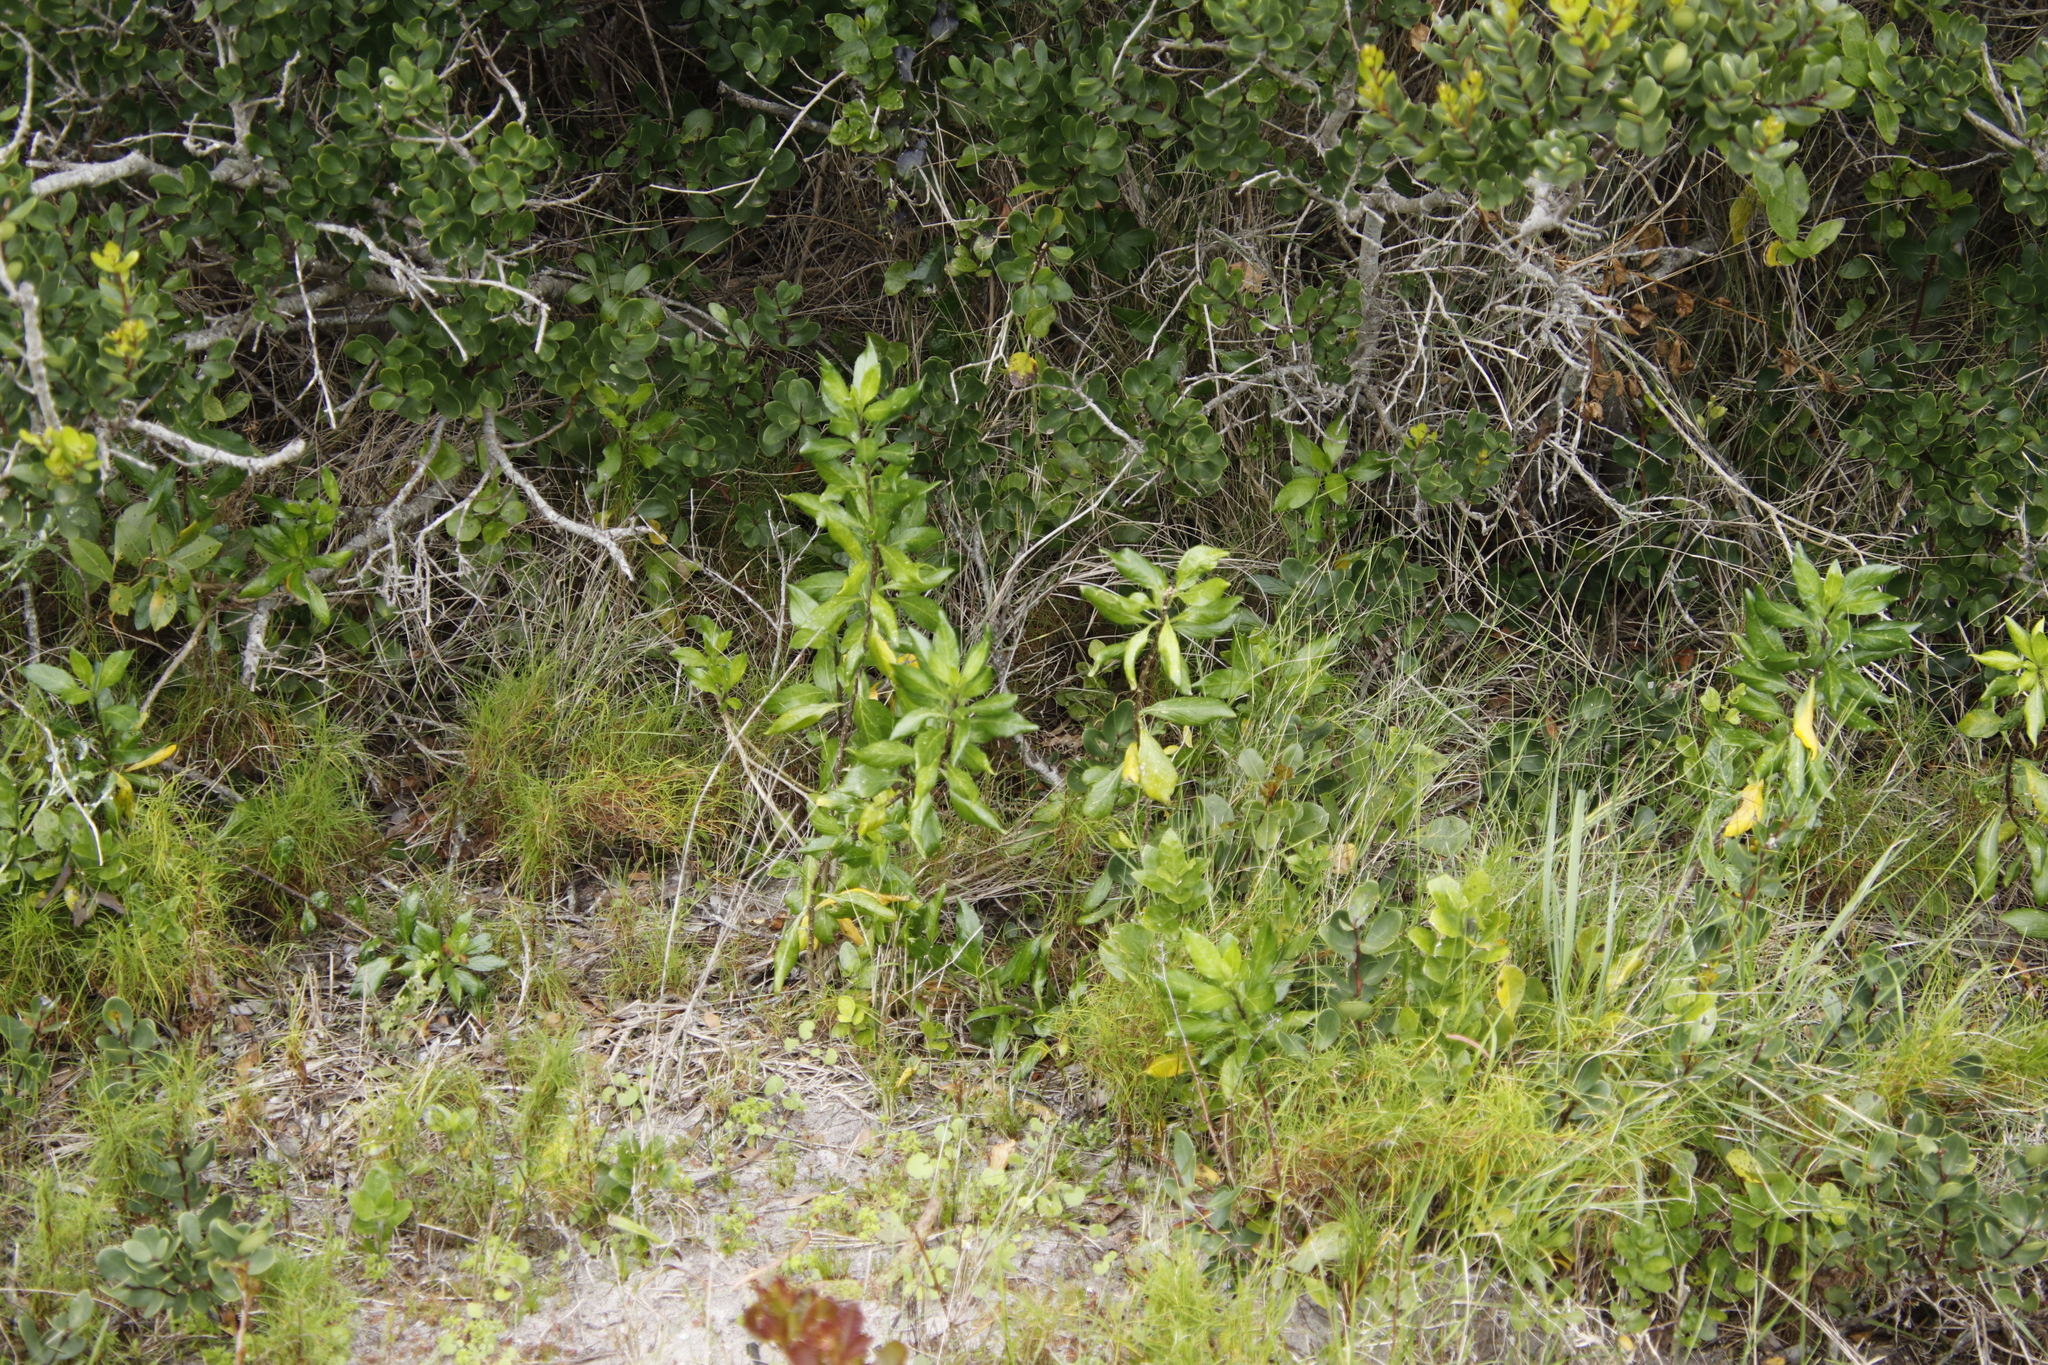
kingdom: Plantae
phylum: Tracheophyta
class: Magnoliopsida
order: Solanales
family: Solanaceae
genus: Solanum
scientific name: Solanum guineense
